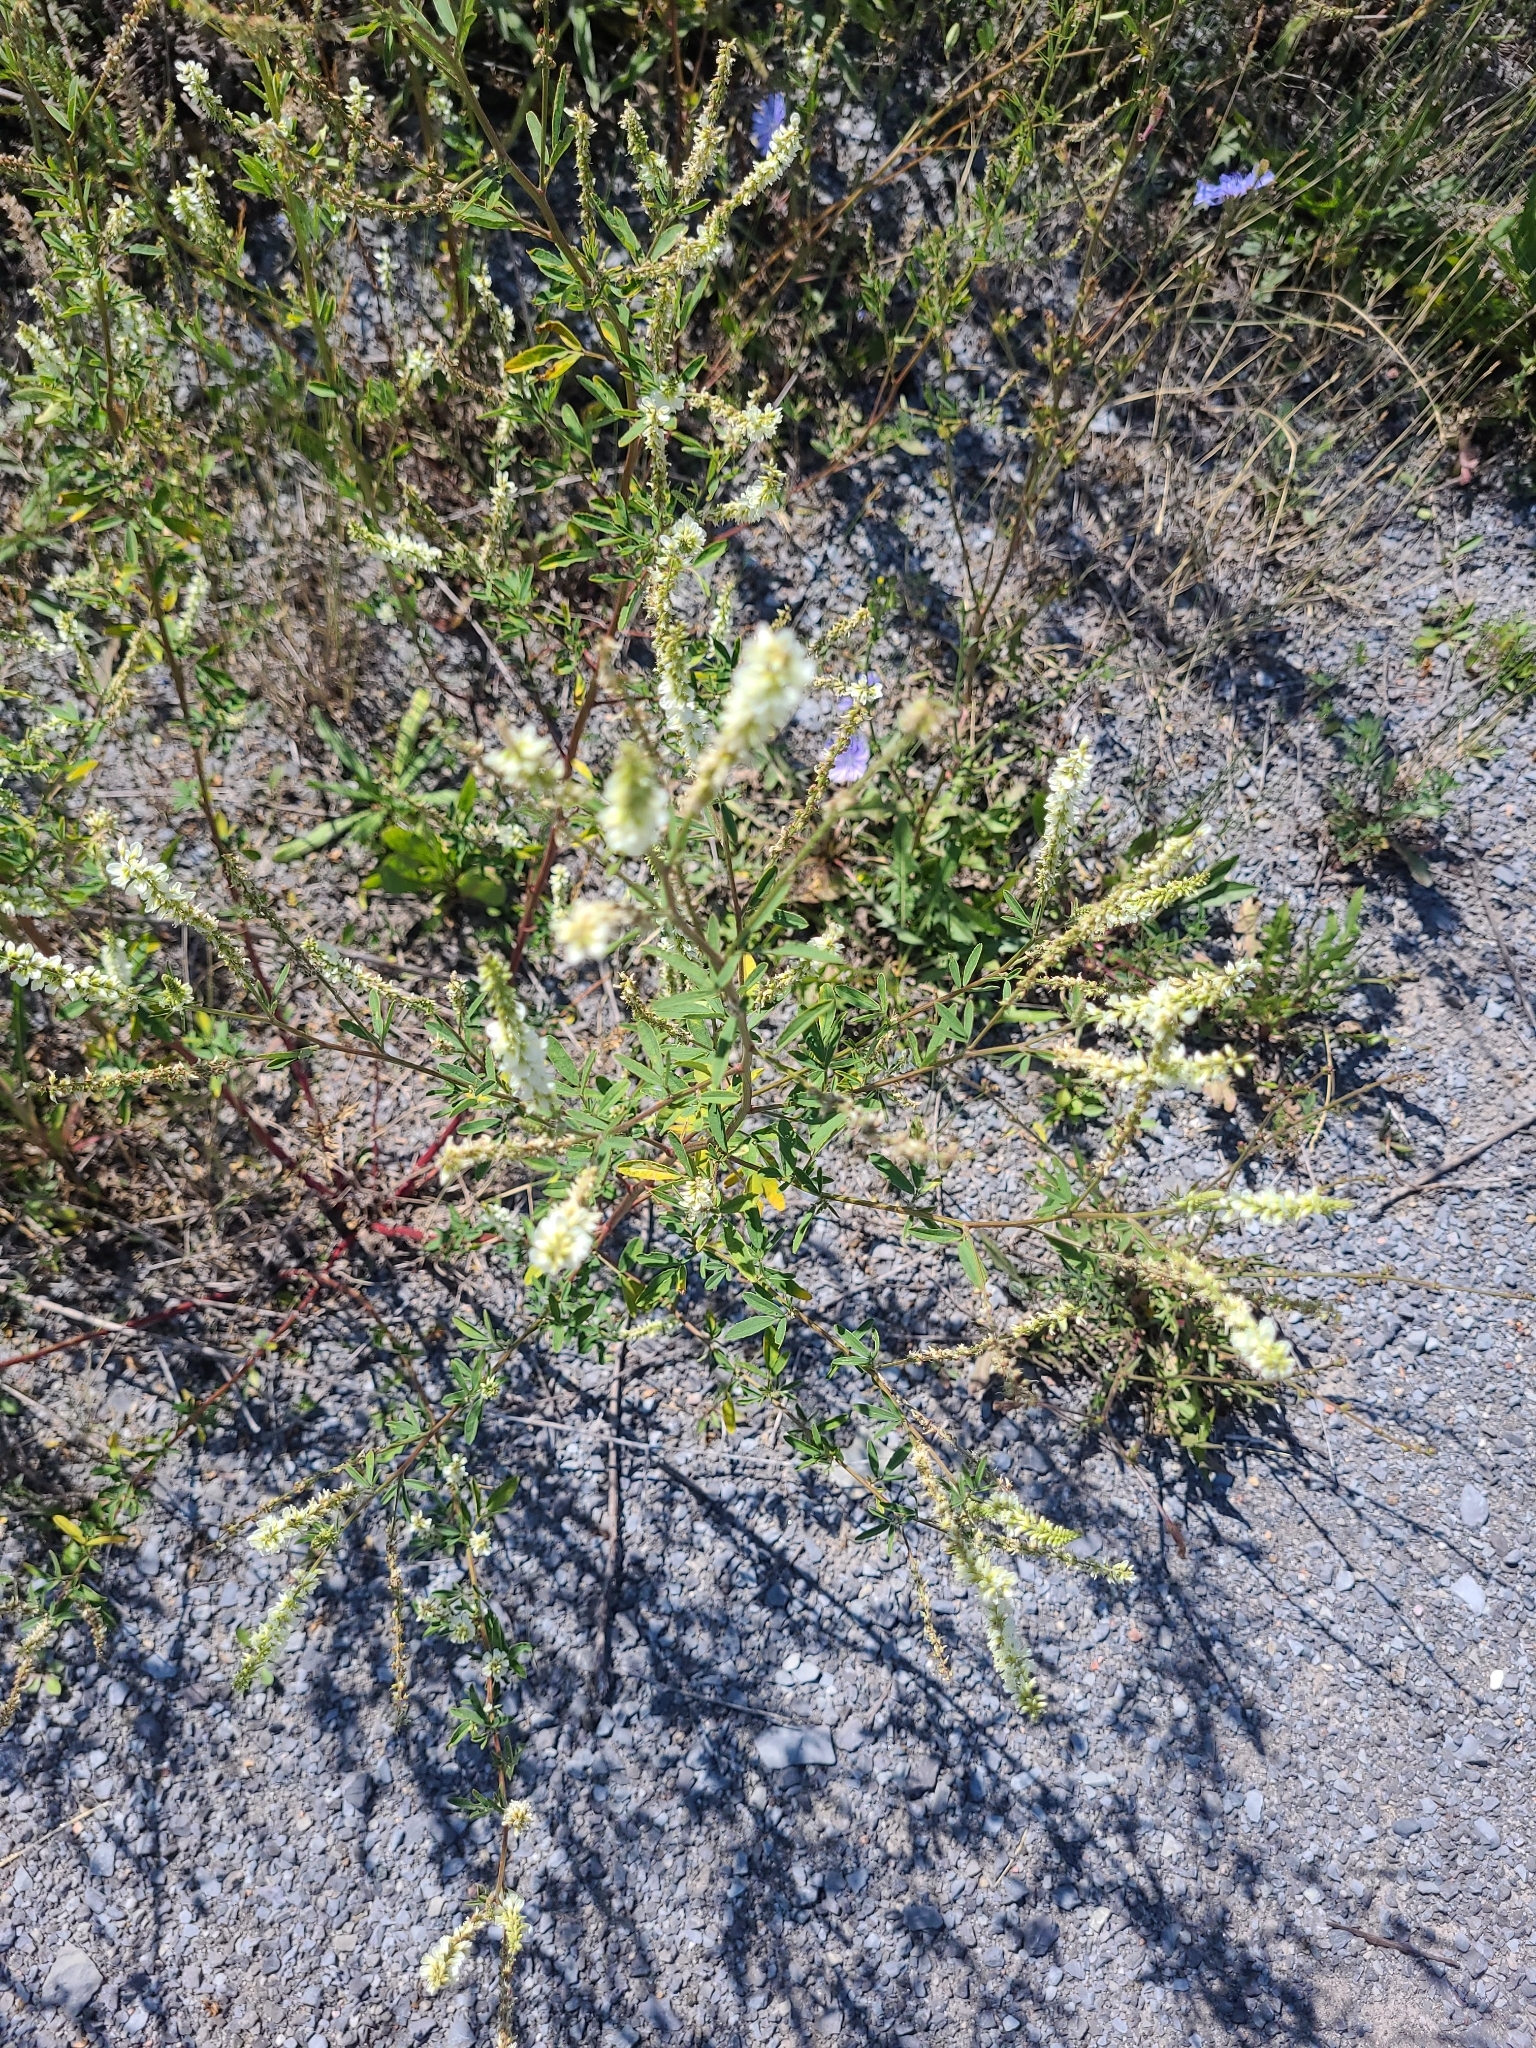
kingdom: Plantae
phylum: Tracheophyta
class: Magnoliopsida
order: Fabales
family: Fabaceae
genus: Melilotus
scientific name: Melilotus albus
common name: White melilot
